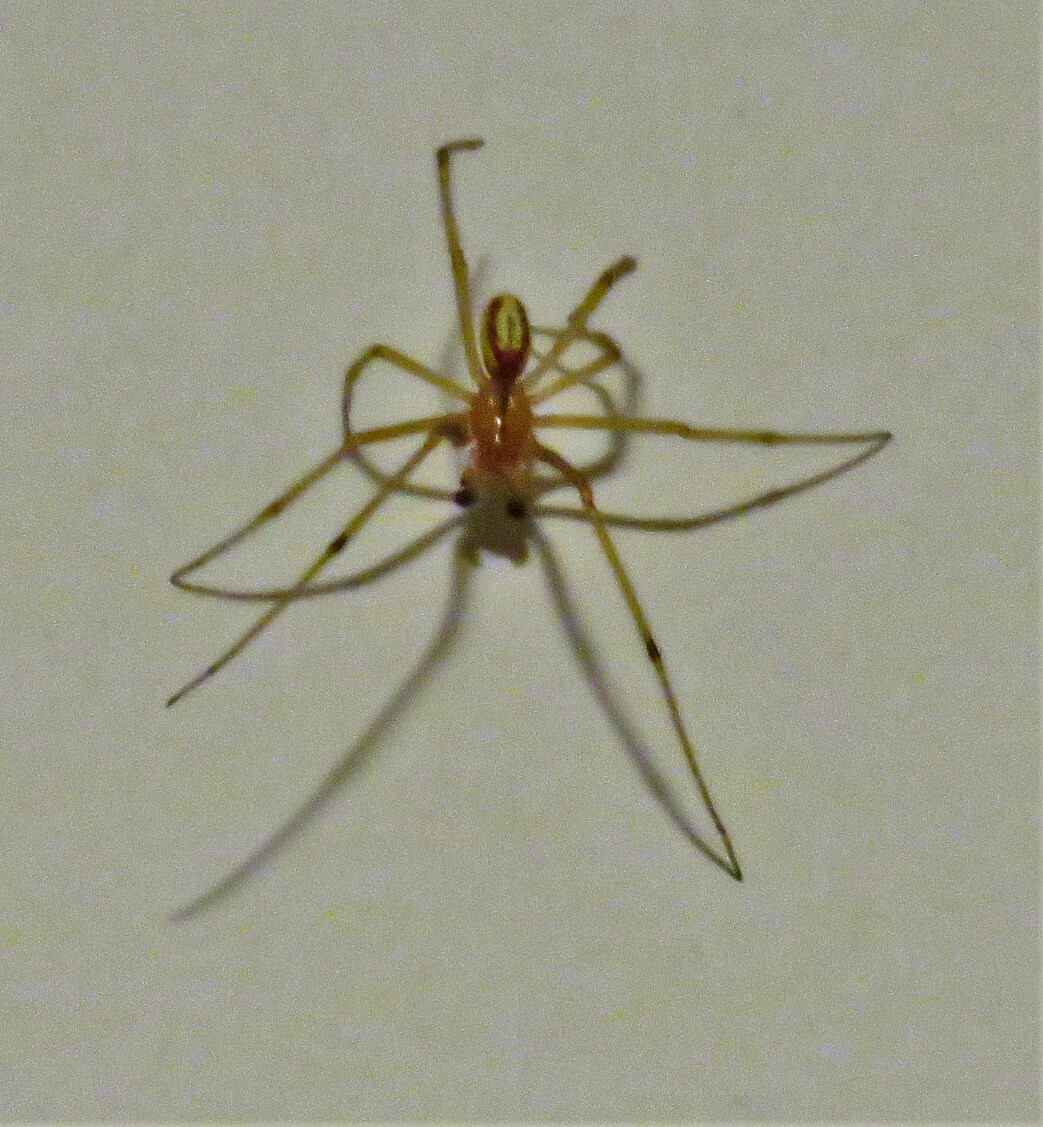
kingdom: Animalia
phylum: Arthropoda
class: Arachnida
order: Araneae
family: Theridiidae
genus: Enoplognatha
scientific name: Enoplognatha ovata
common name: Common candy-striped spider
